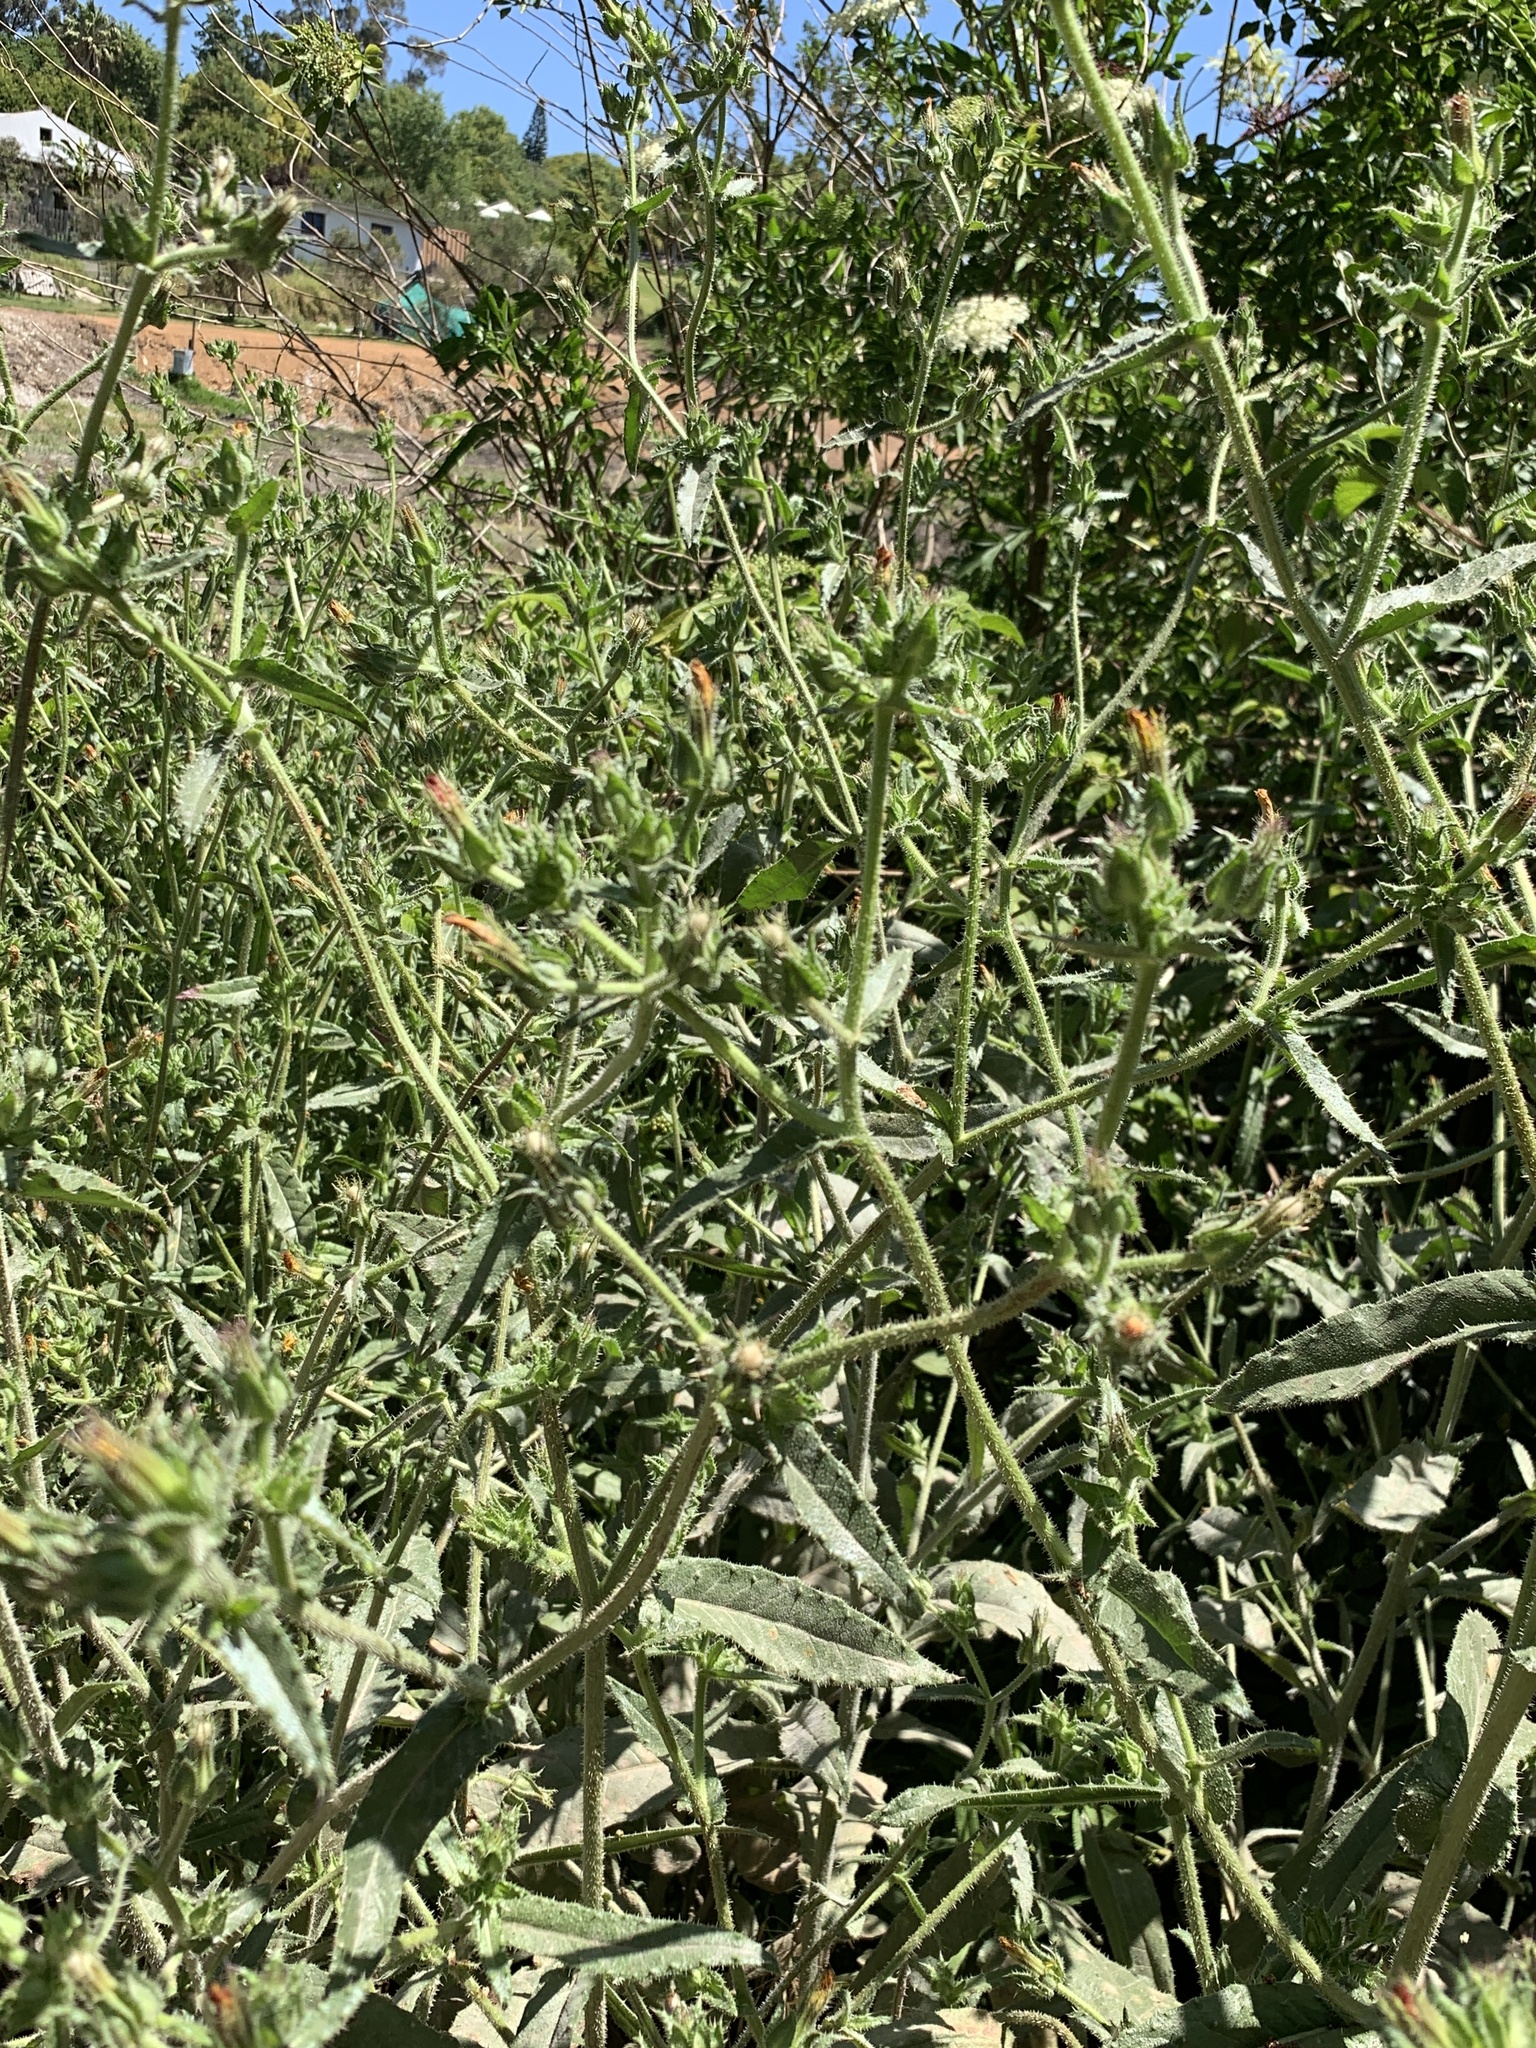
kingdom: Plantae
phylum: Tracheophyta
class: Magnoliopsida
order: Asterales
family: Asteraceae
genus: Helminthotheca
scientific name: Helminthotheca echioides
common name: Ox-tongue
